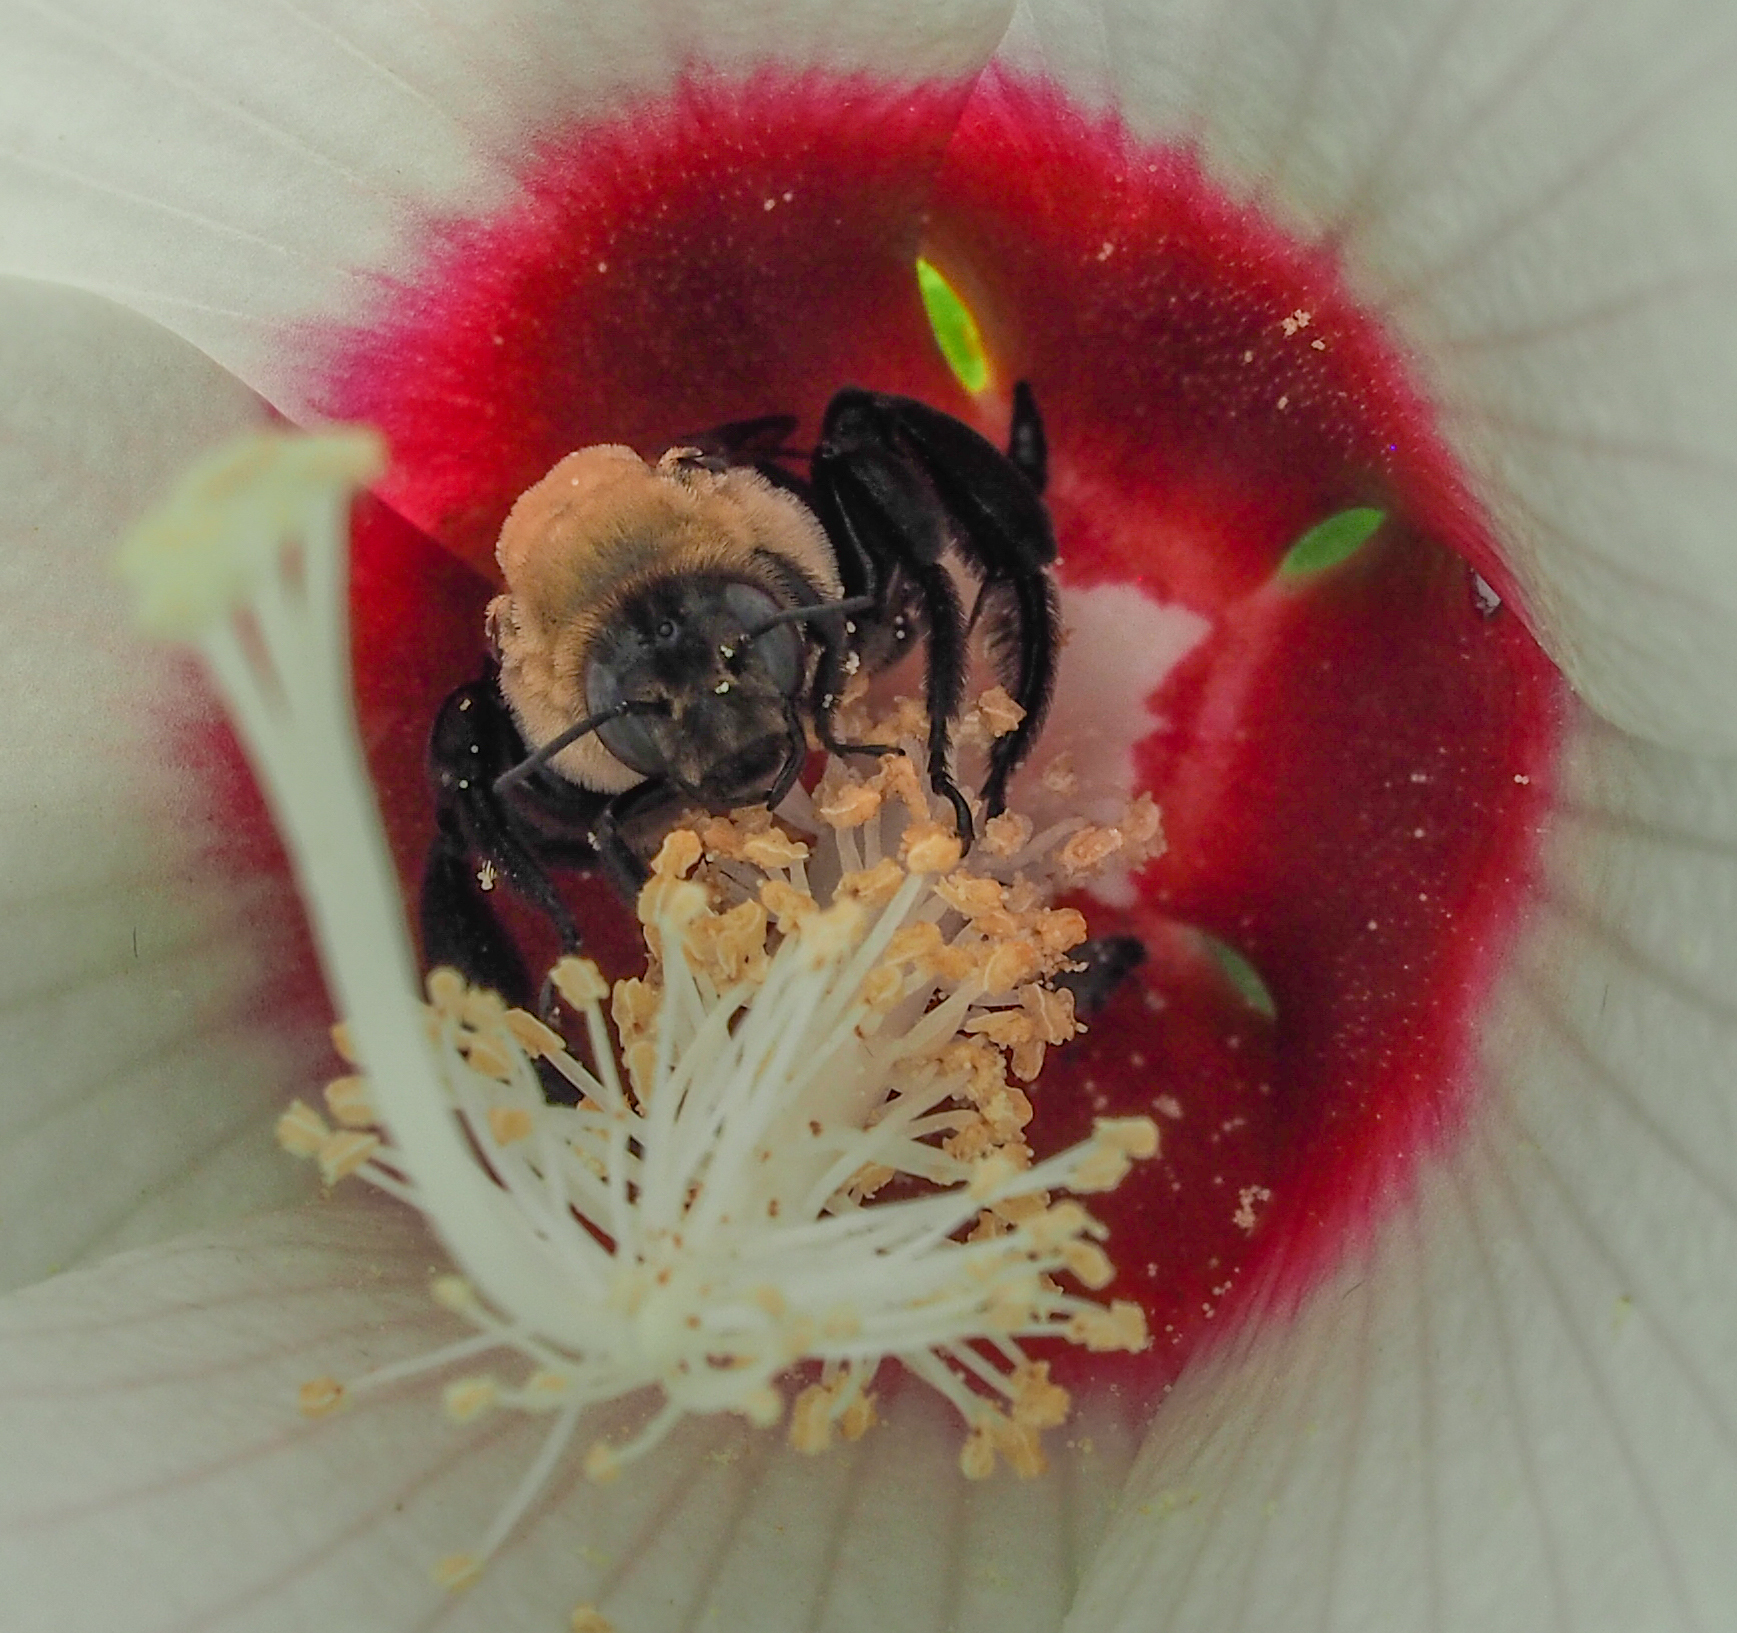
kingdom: Animalia
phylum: Arthropoda
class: Insecta
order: Hymenoptera
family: Apidae
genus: Ptilothrix
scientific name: Ptilothrix bombiformis
